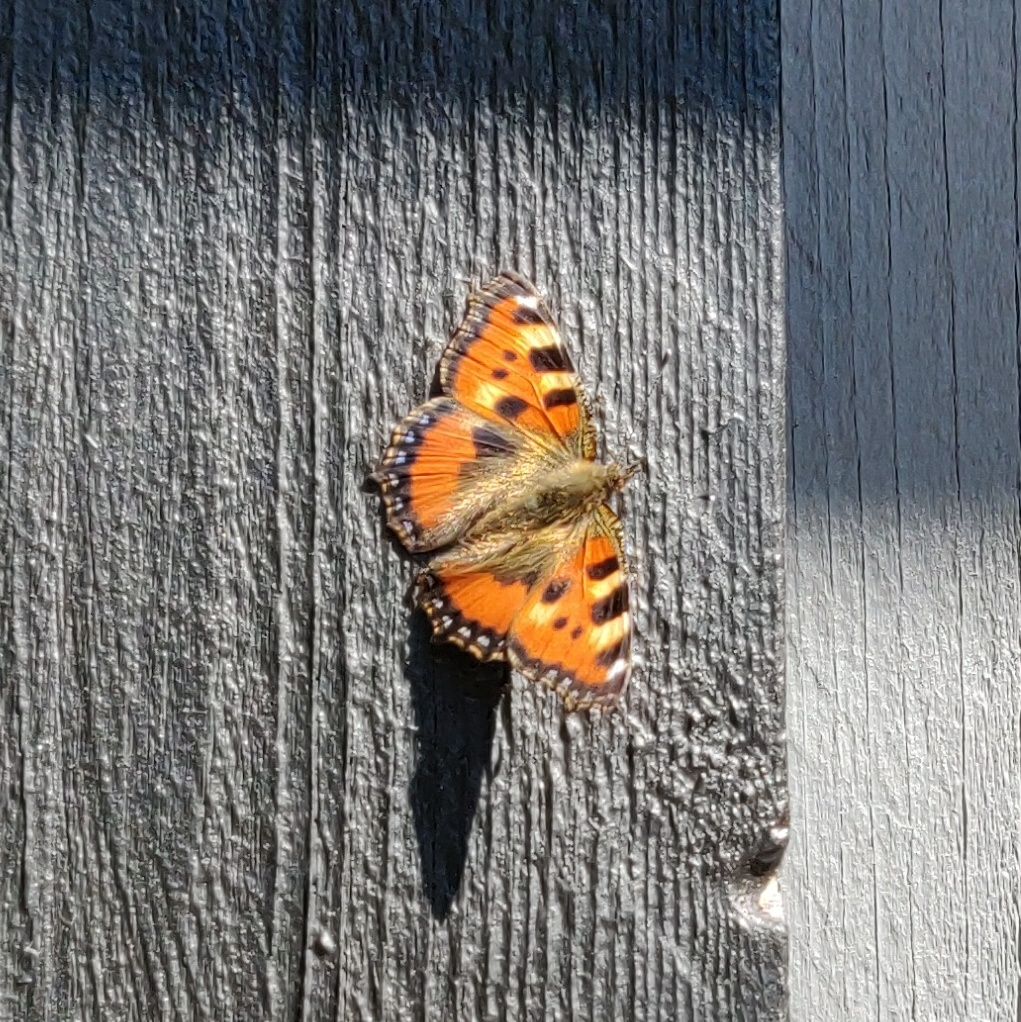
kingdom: Animalia
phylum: Arthropoda
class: Insecta
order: Lepidoptera
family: Nymphalidae
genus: Aglais
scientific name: Aglais urticae
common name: Small tortoiseshell
